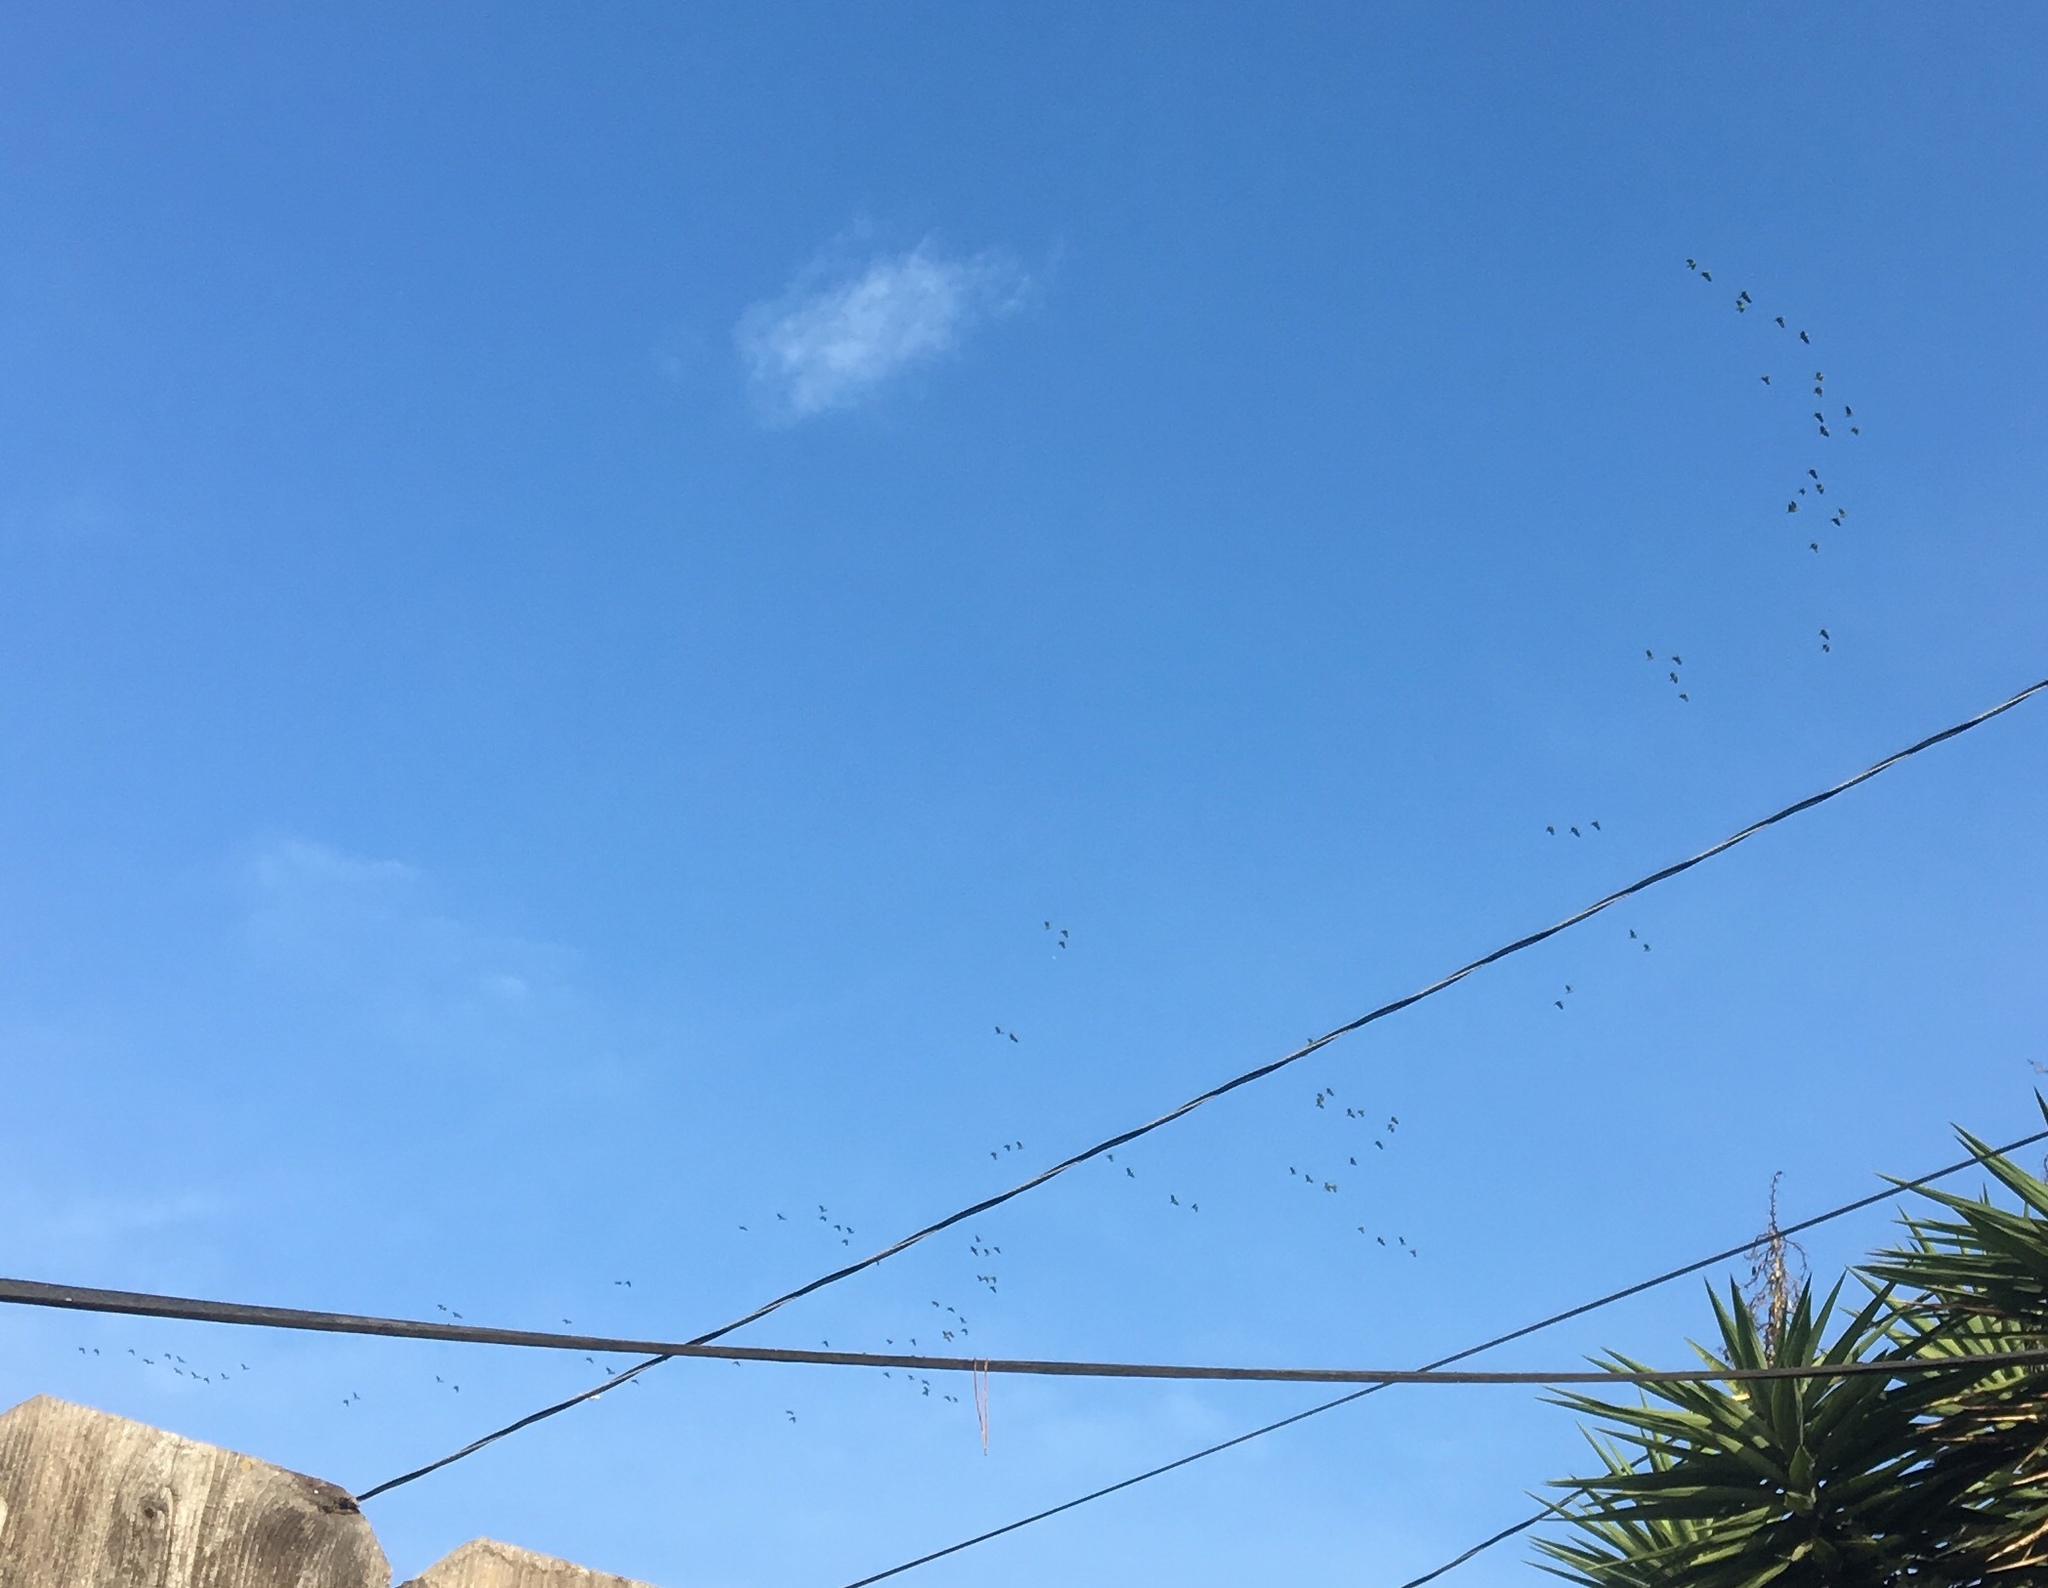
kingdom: Animalia
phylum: Chordata
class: Aves
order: Psittaciformes
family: Psittacidae
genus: Amazona
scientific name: Amazona viridigenalis
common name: Red-crowned amazon
